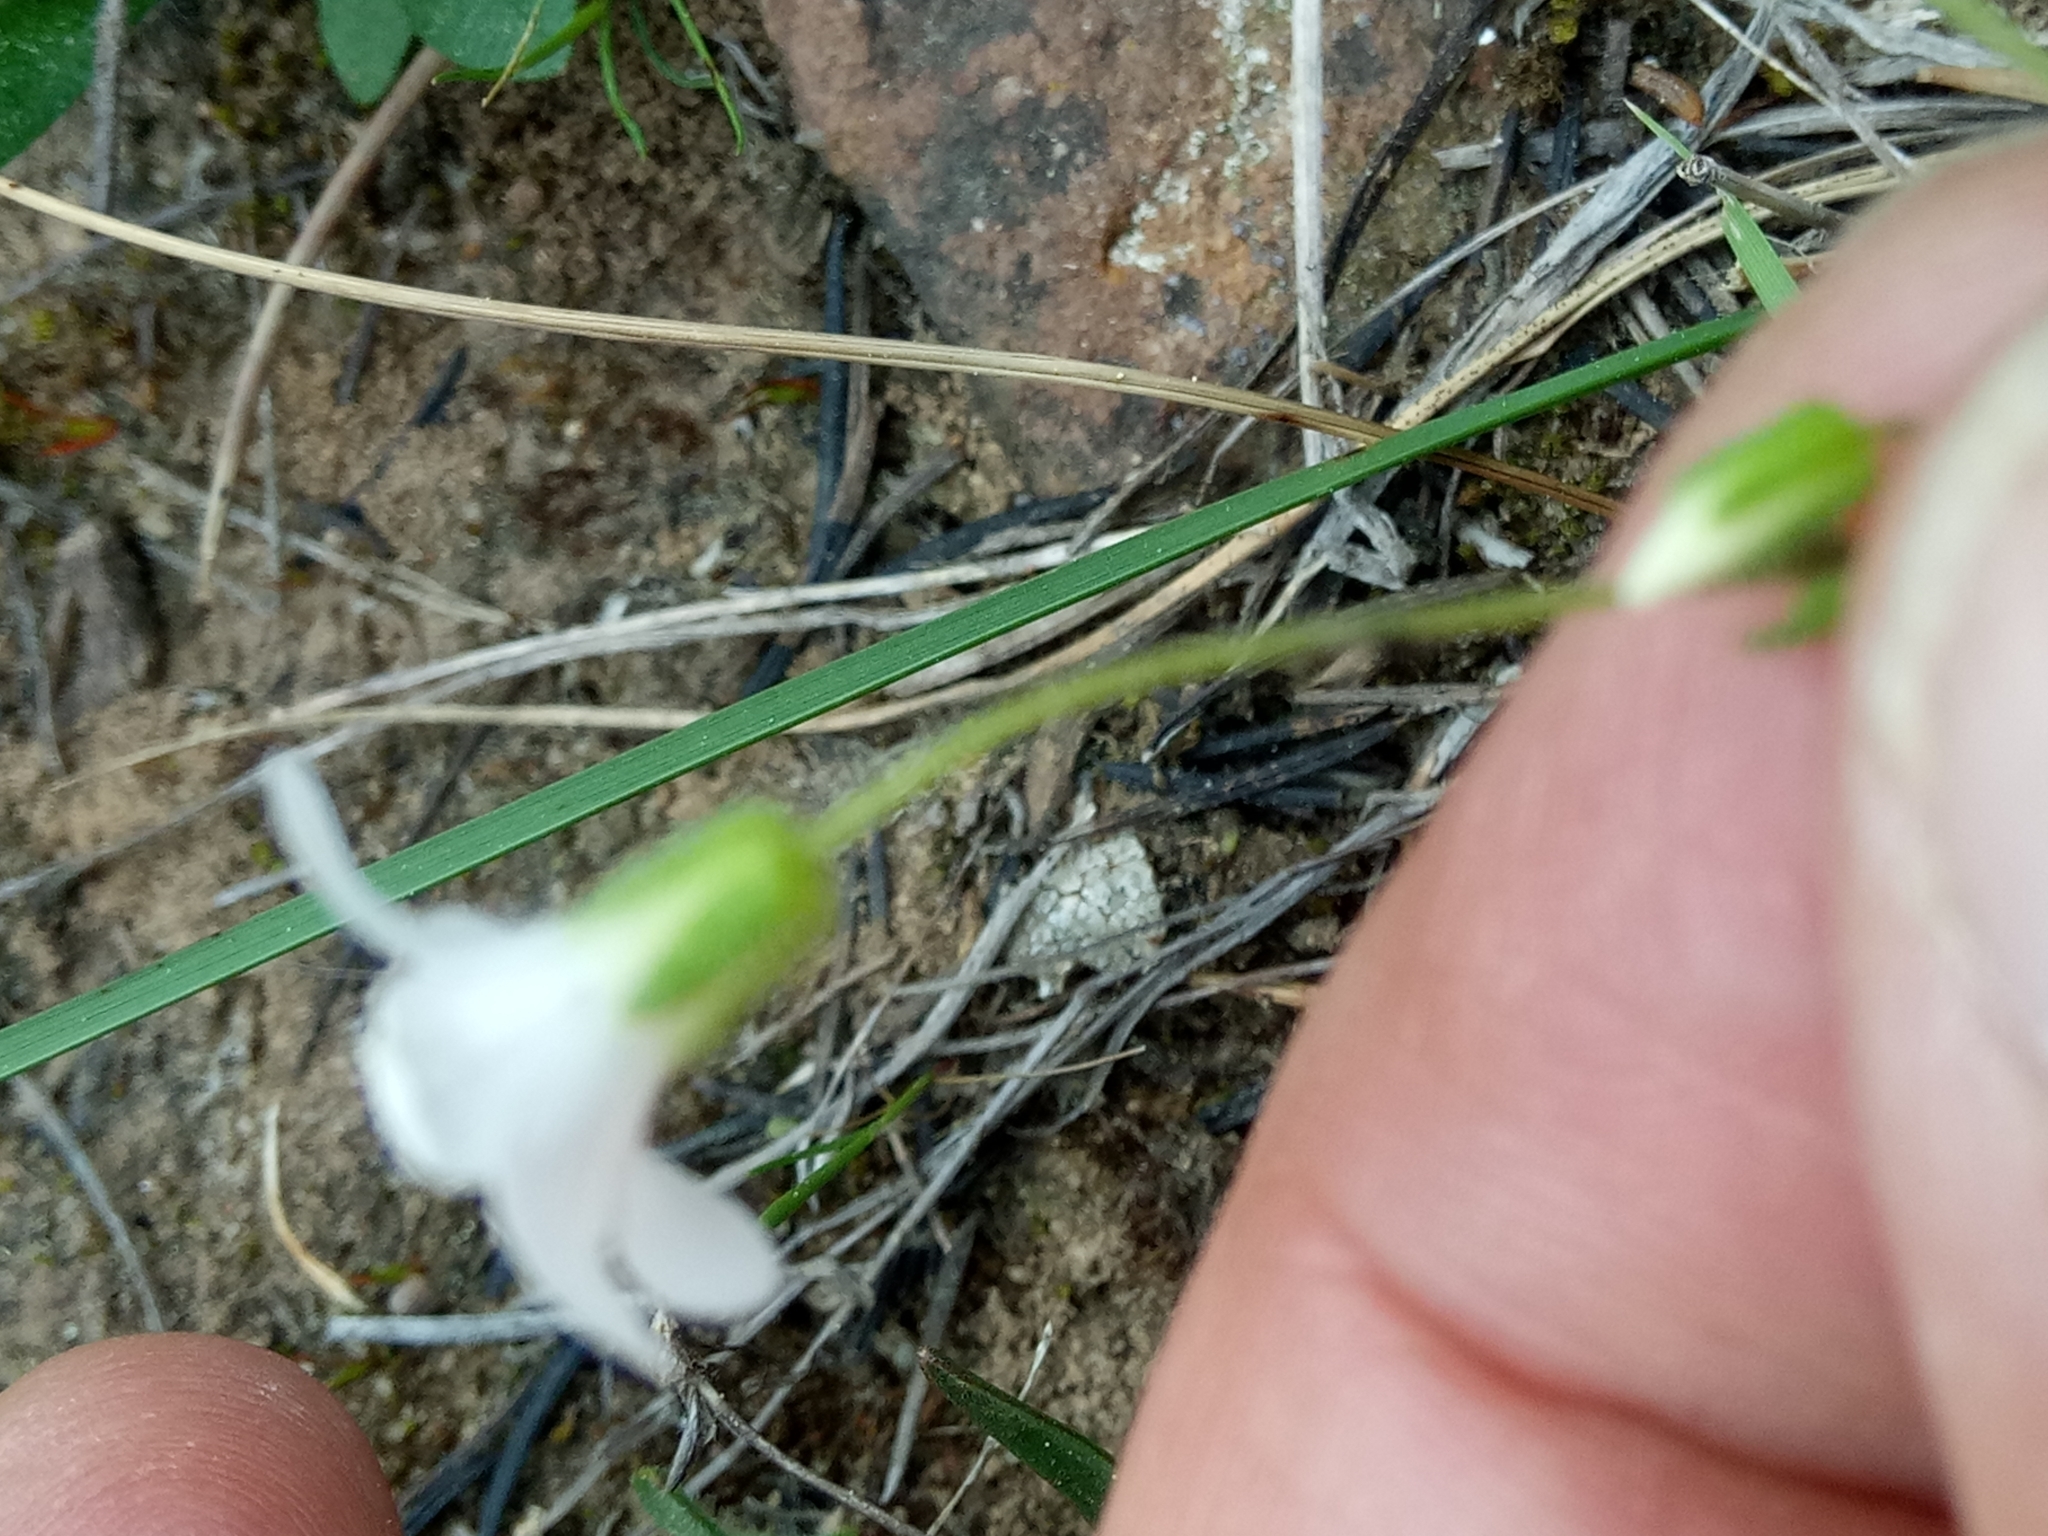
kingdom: Plantae
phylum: Tracheophyta
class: Magnoliopsida
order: Caryophyllales
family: Caryophyllaceae
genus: Arenaria
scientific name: Arenaria cerastioides
